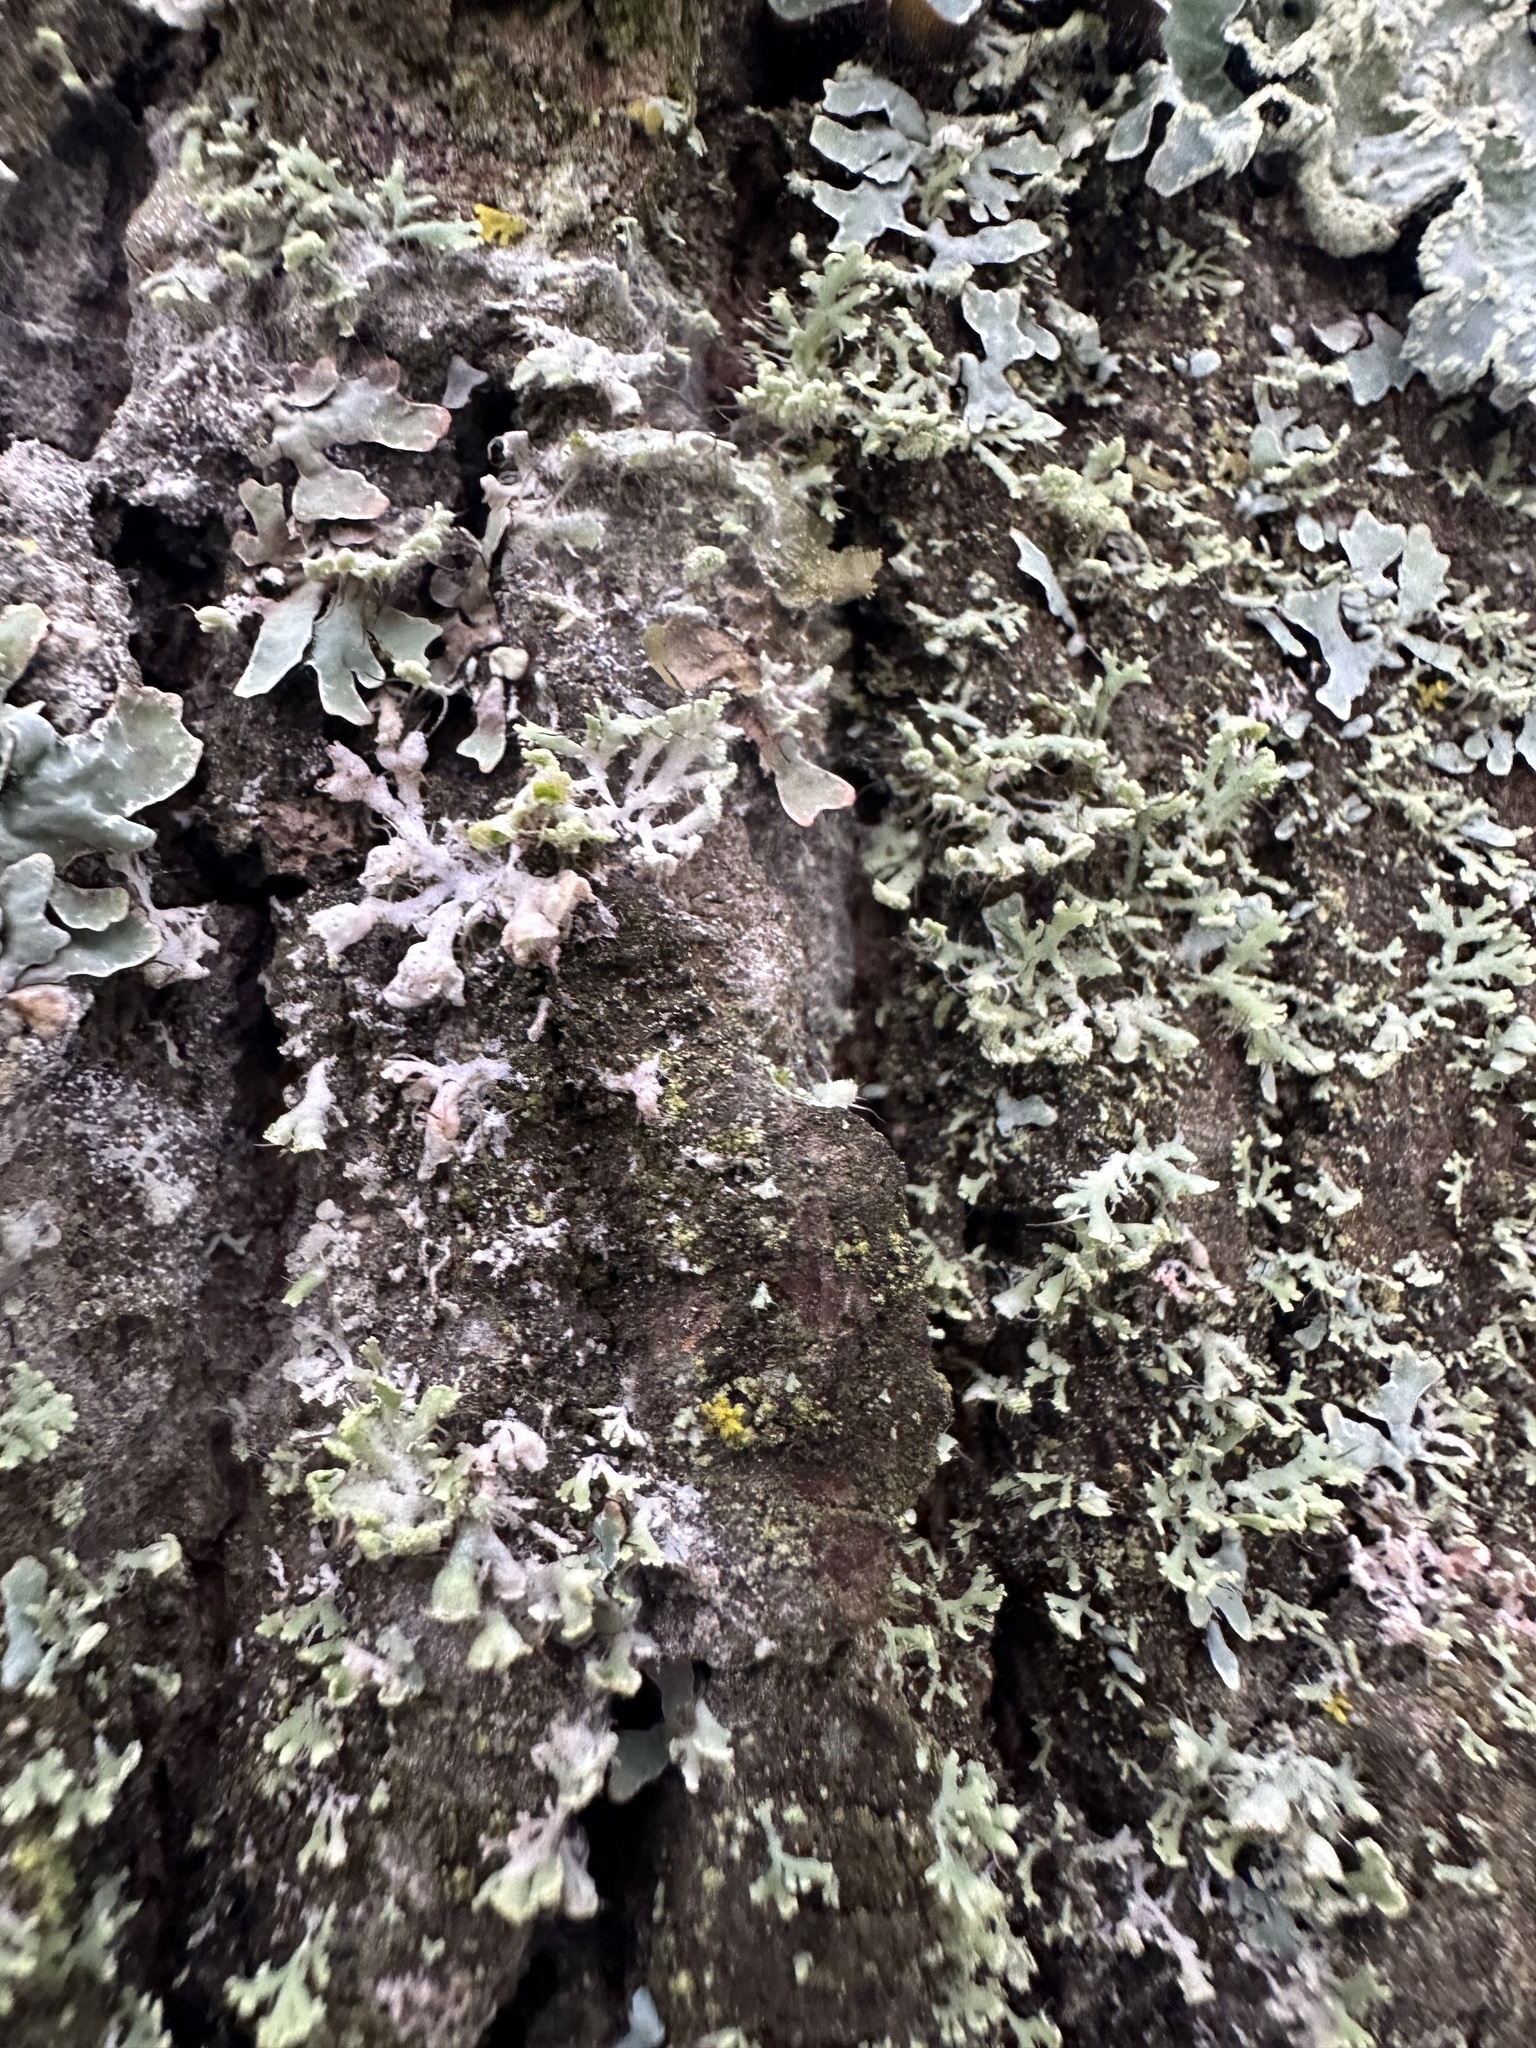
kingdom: Fungi
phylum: Ascomycota
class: Lecanoromycetes
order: Caliciales
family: Physciaceae
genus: Physcia
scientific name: Physcia tenella
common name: Fringed rosette lichen
